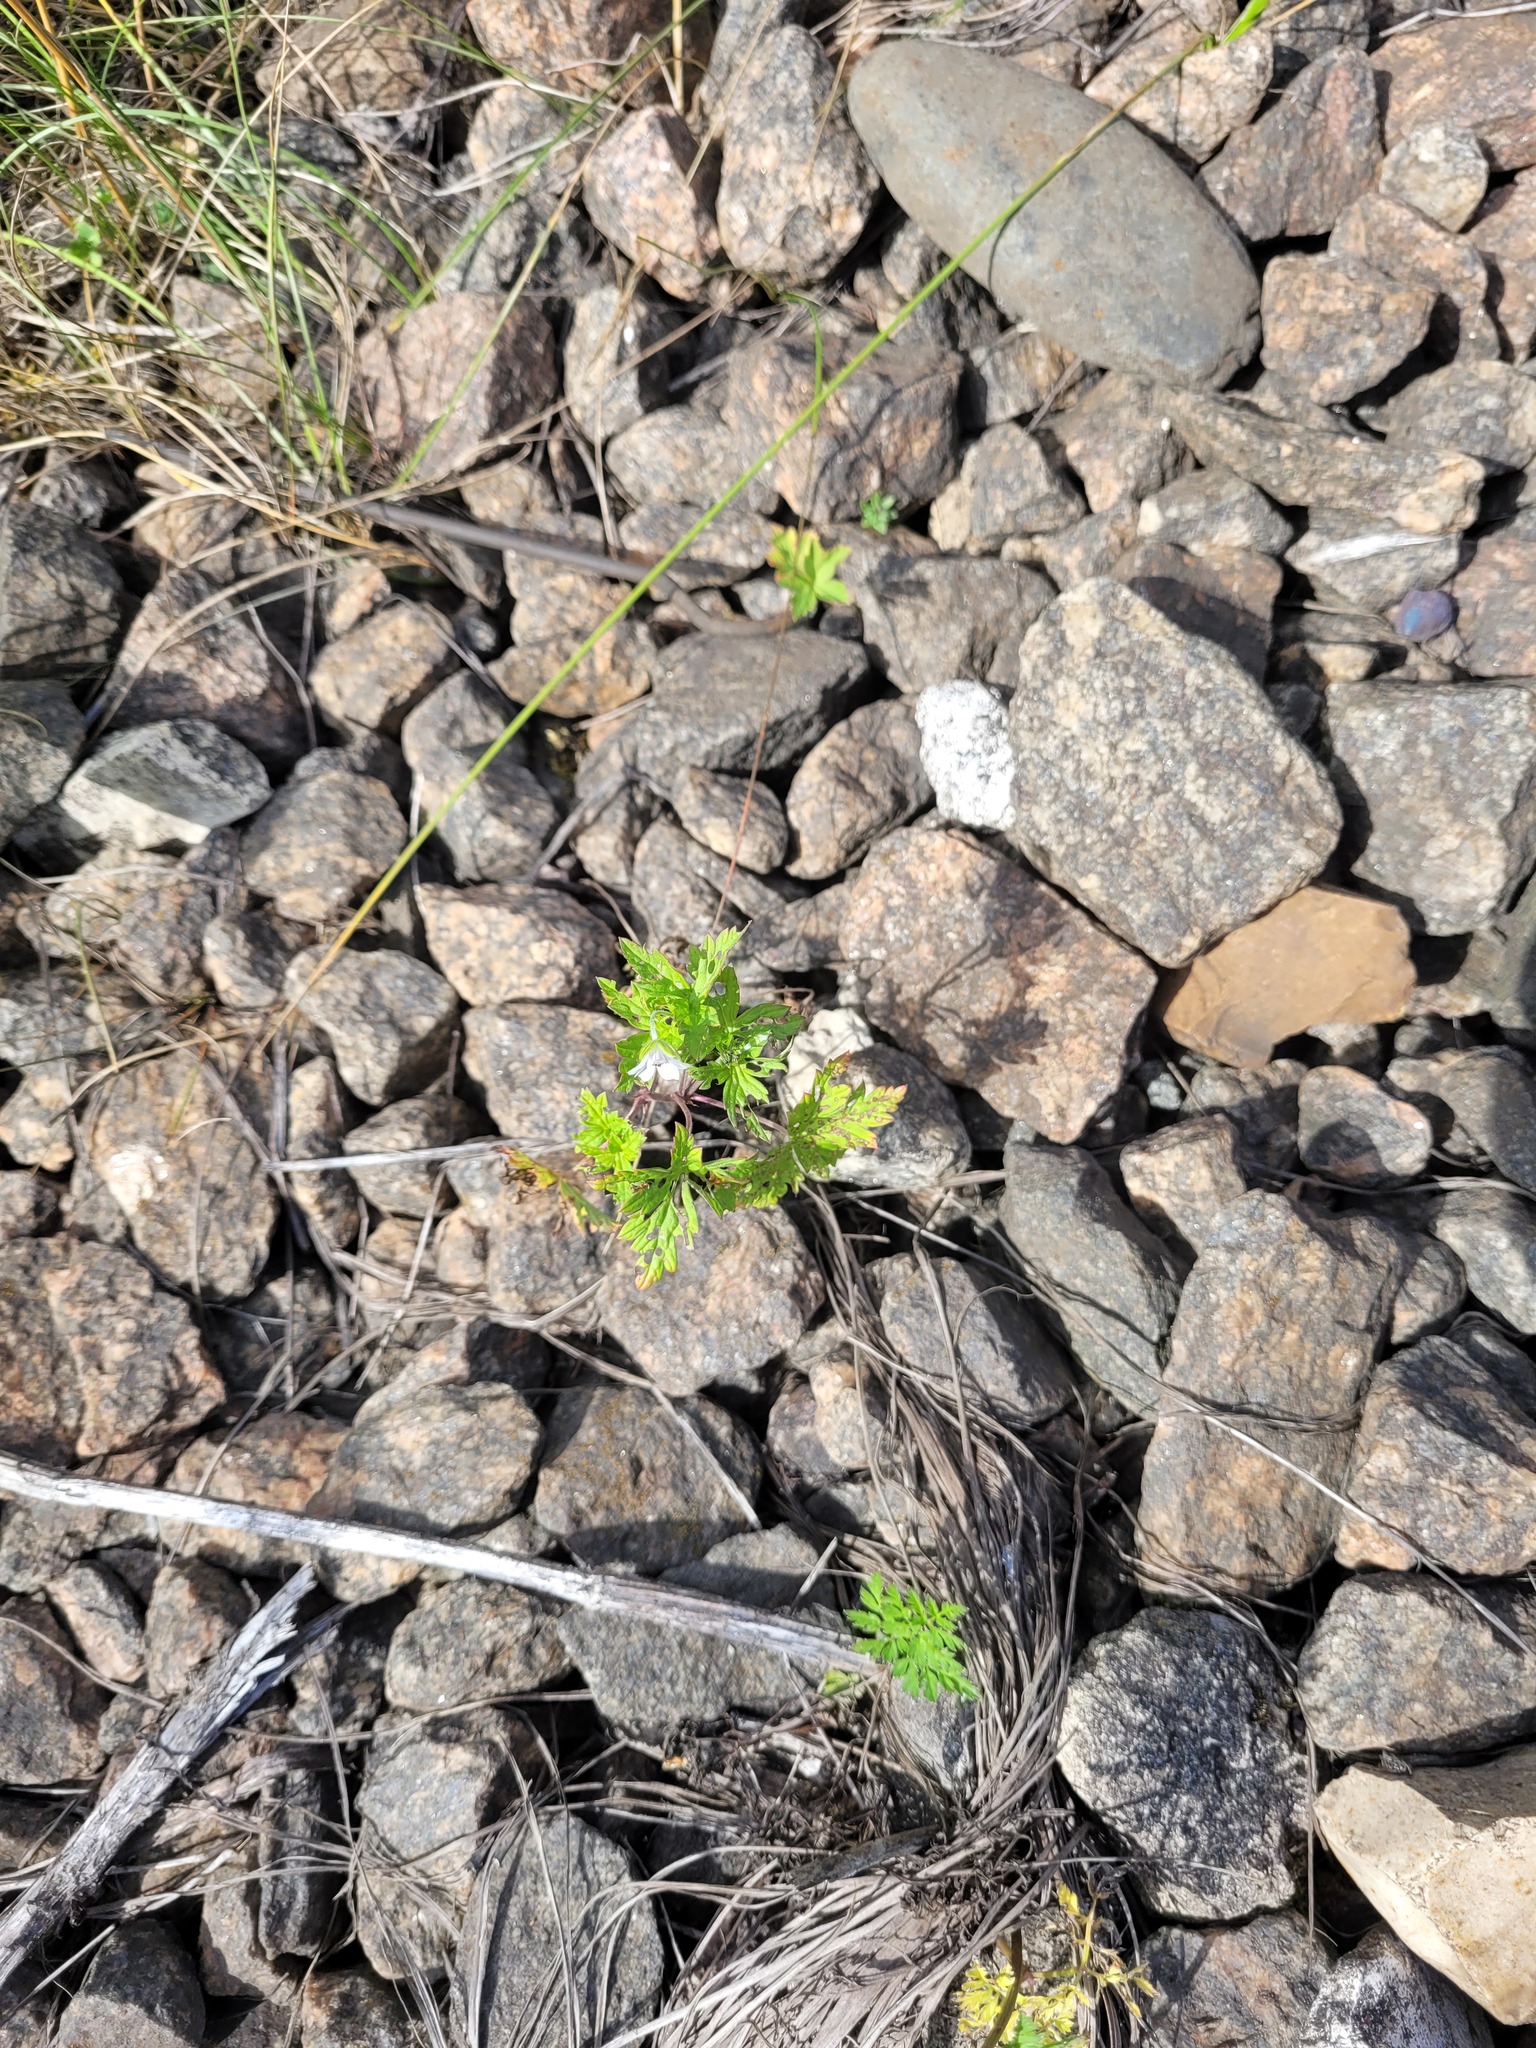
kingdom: Plantae
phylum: Tracheophyta
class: Magnoliopsida
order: Geraniales
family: Geraniaceae
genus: Geranium
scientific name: Geranium sibiricum
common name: Siberian crane's-bill
